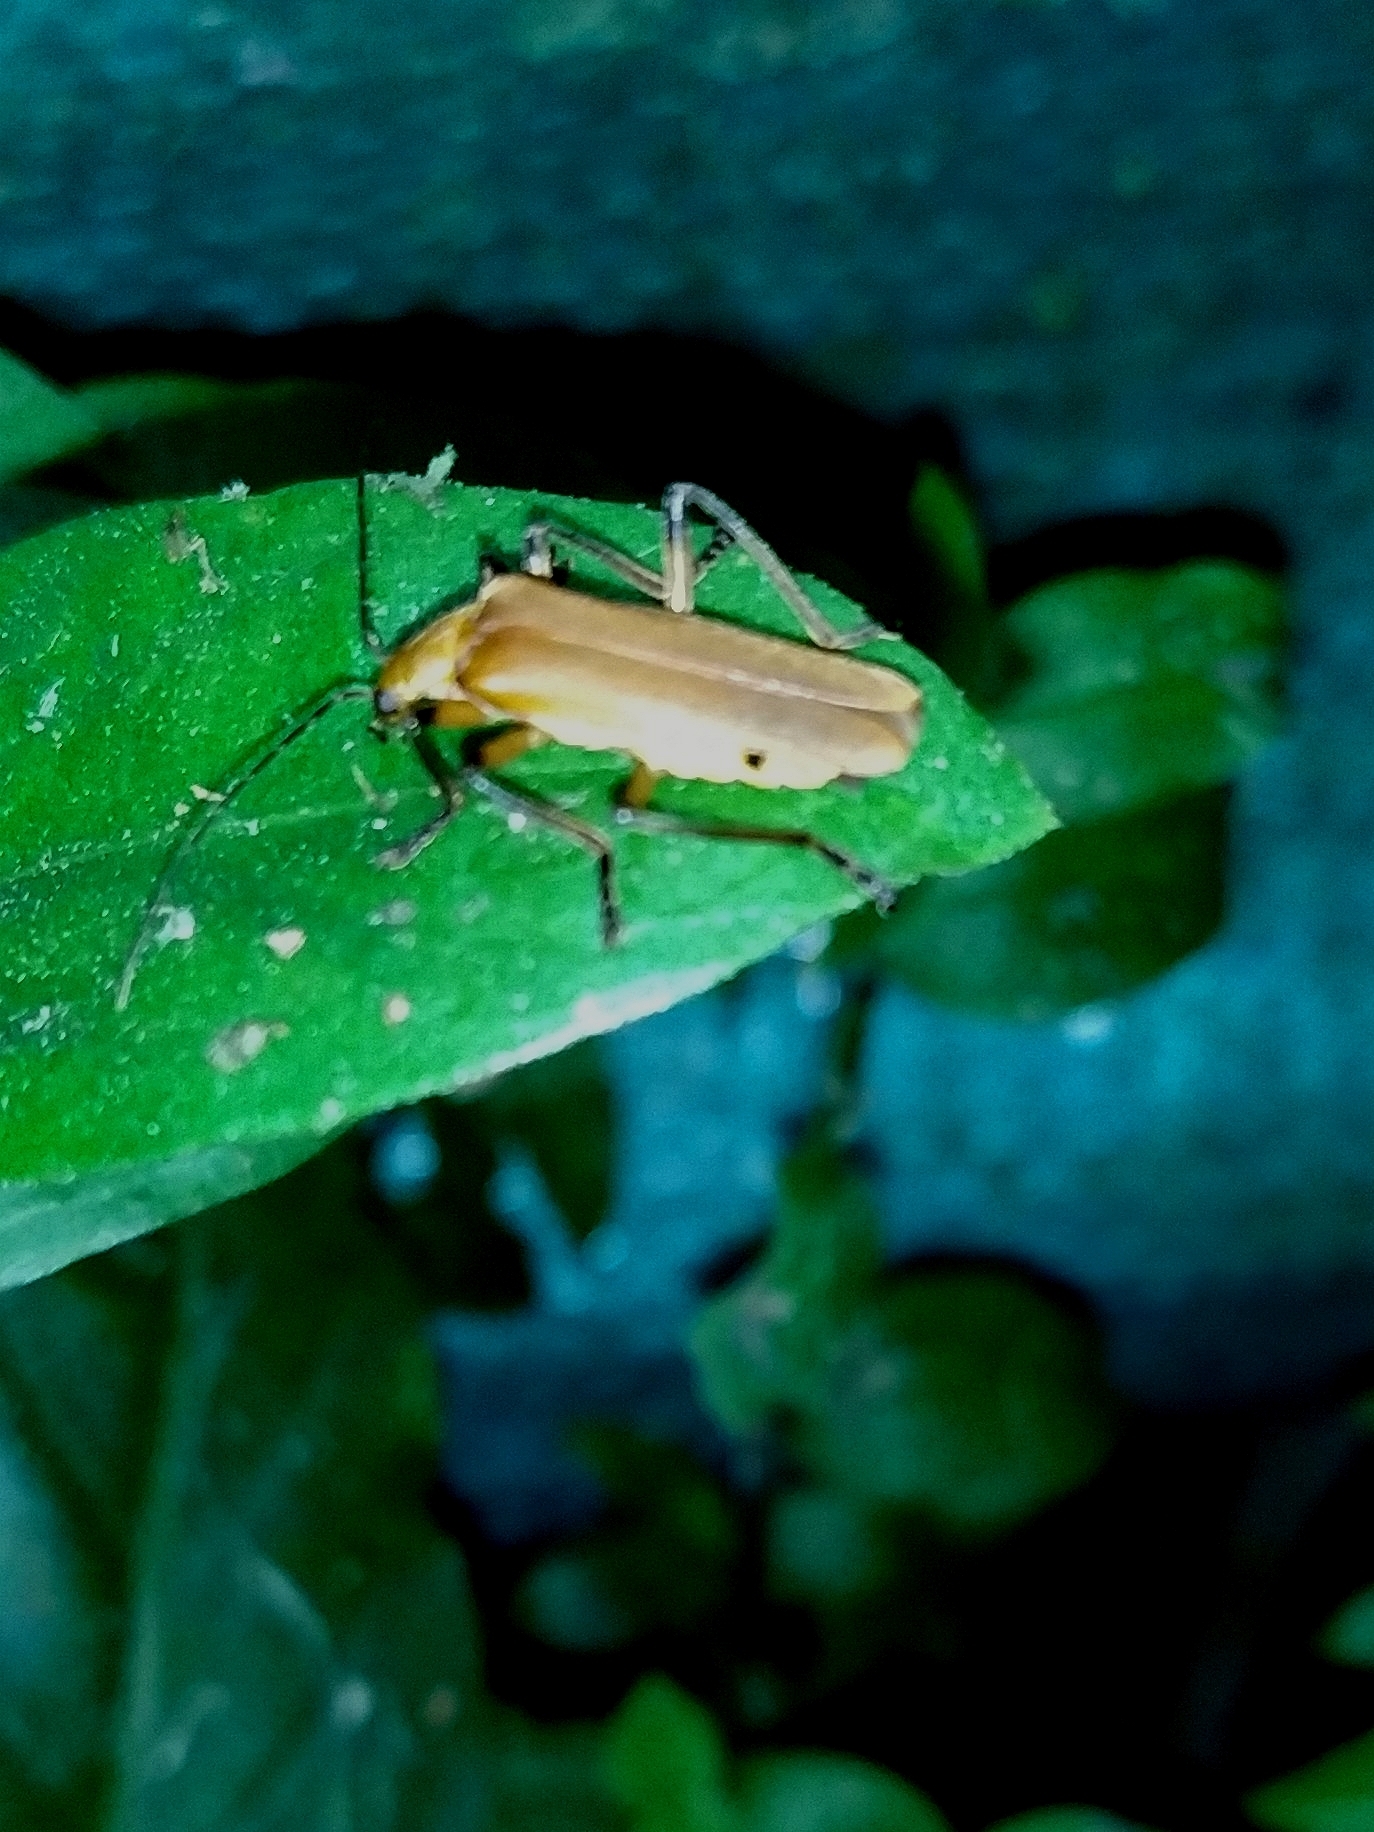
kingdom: Animalia
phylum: Arthropoda
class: Insecta
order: Coleoptera
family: Cantharidae
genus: Chauliognathus
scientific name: Chauliognathus
